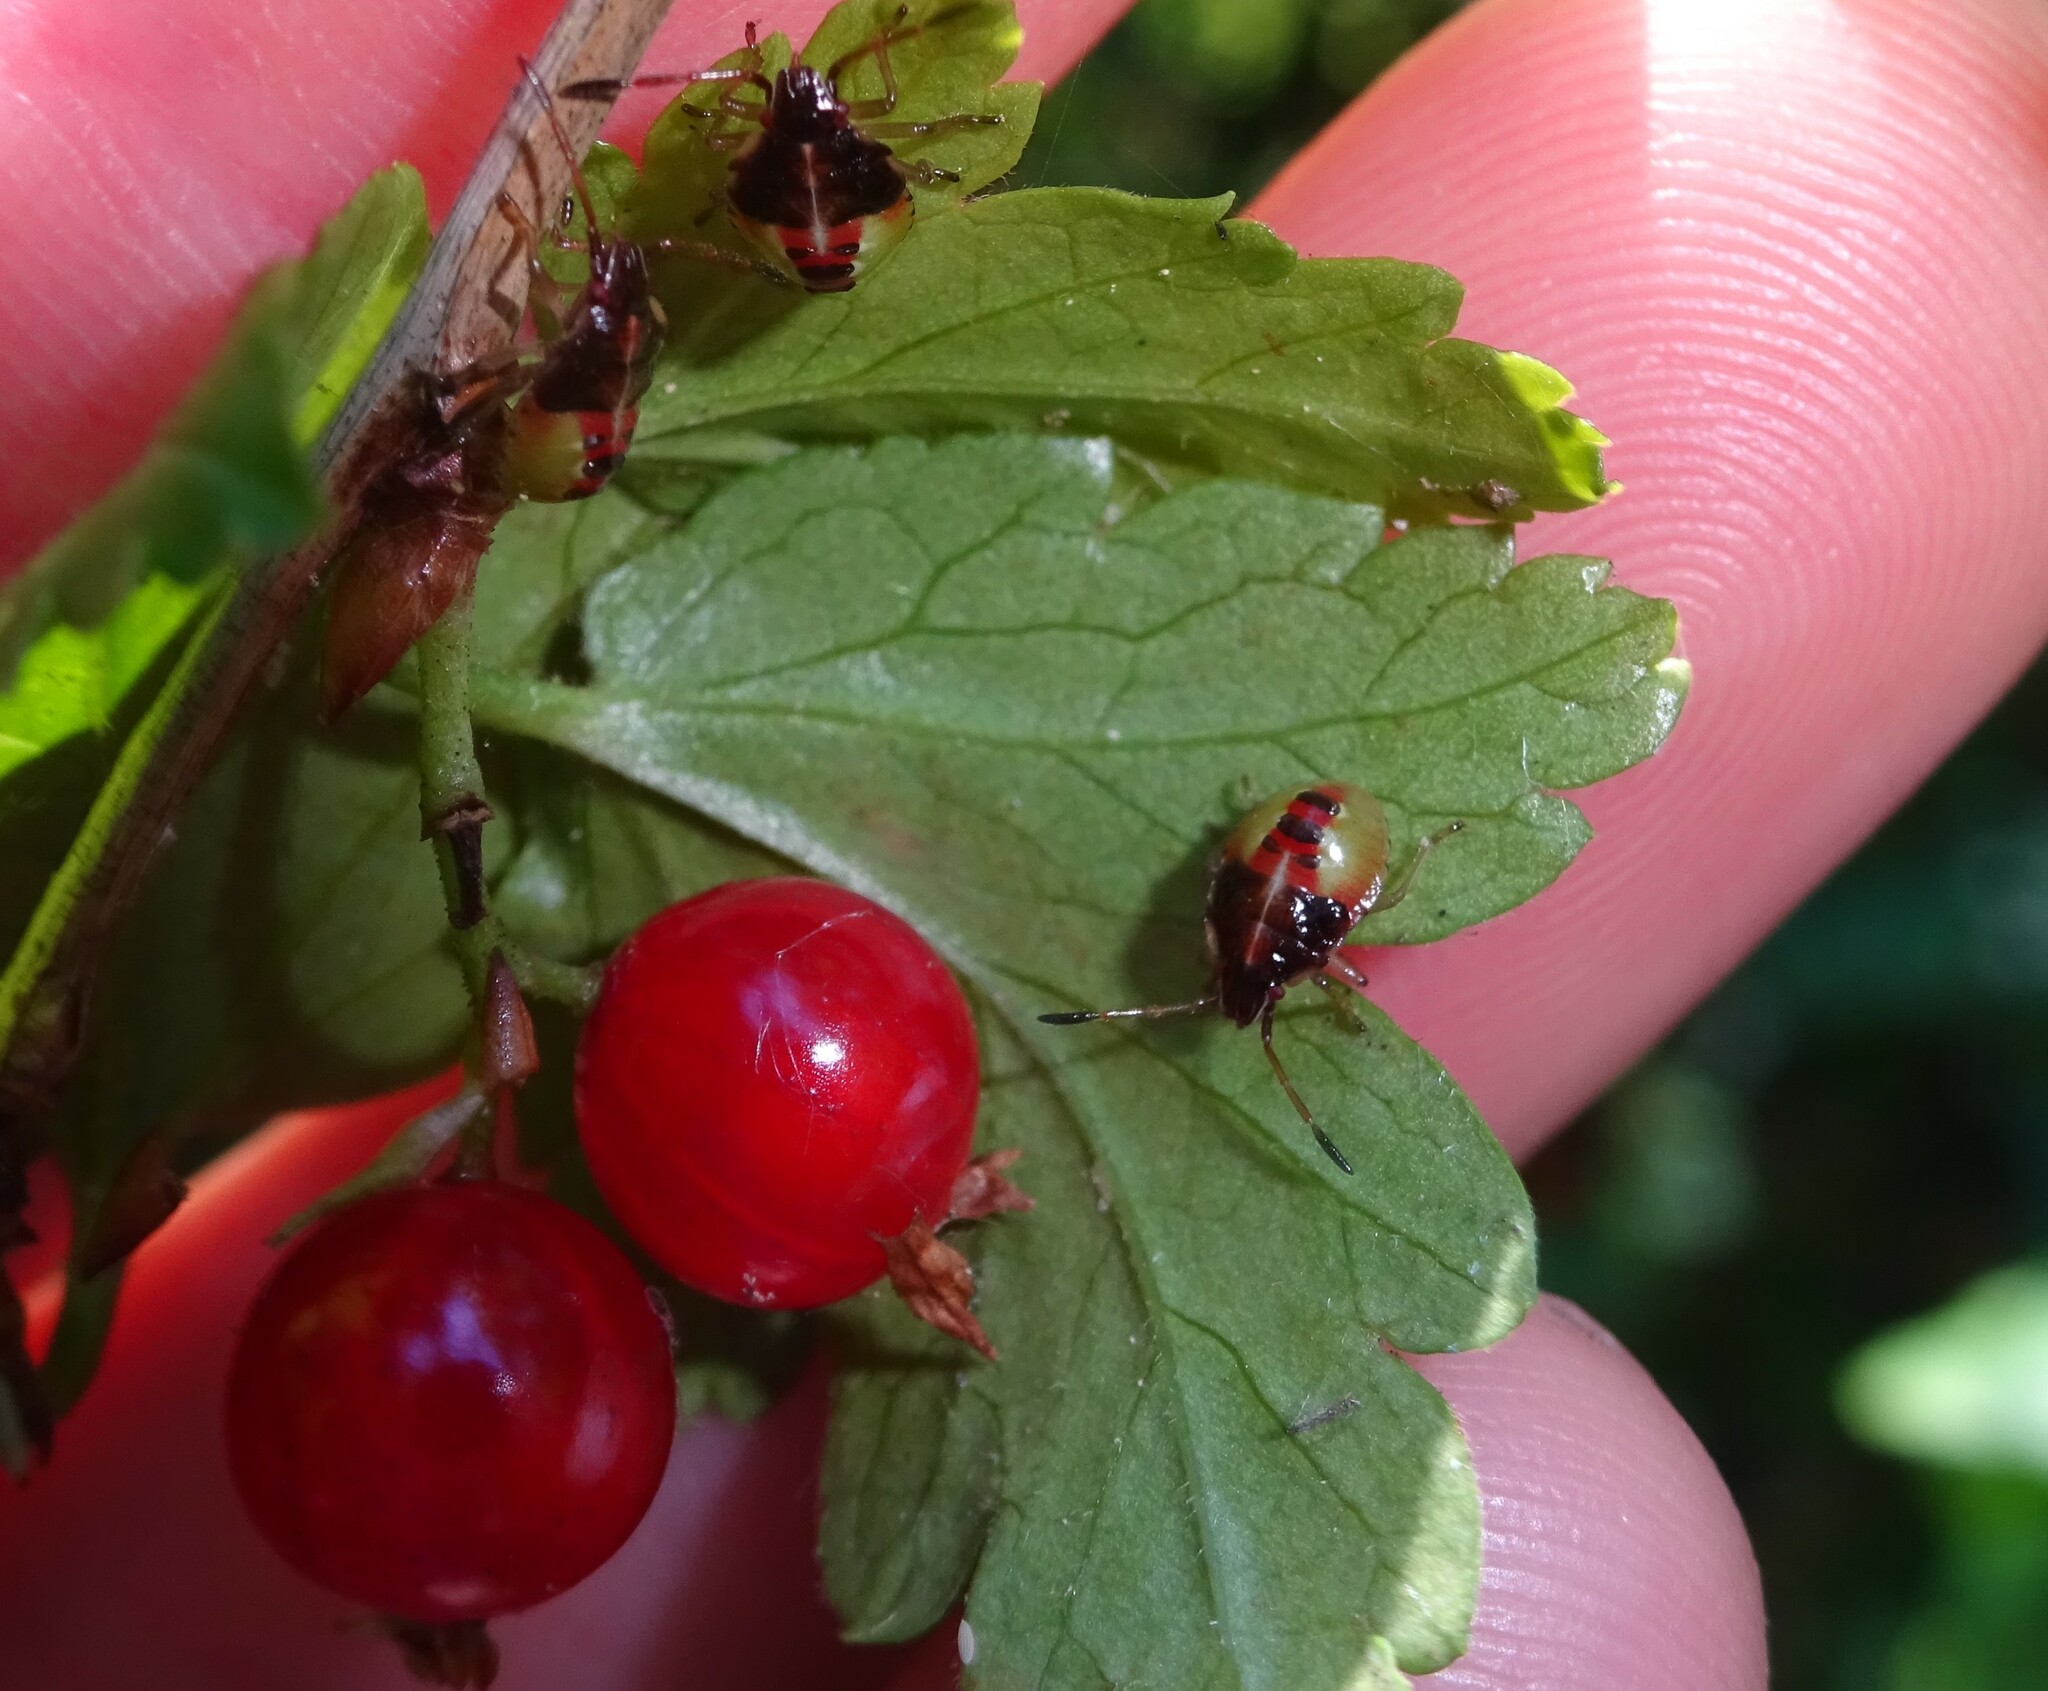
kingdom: Animalia
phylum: Arthropoda
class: Insecta
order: Hemiptera
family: Acanthosomatidae
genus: Elasmucha
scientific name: Elasmucha ferrugata
